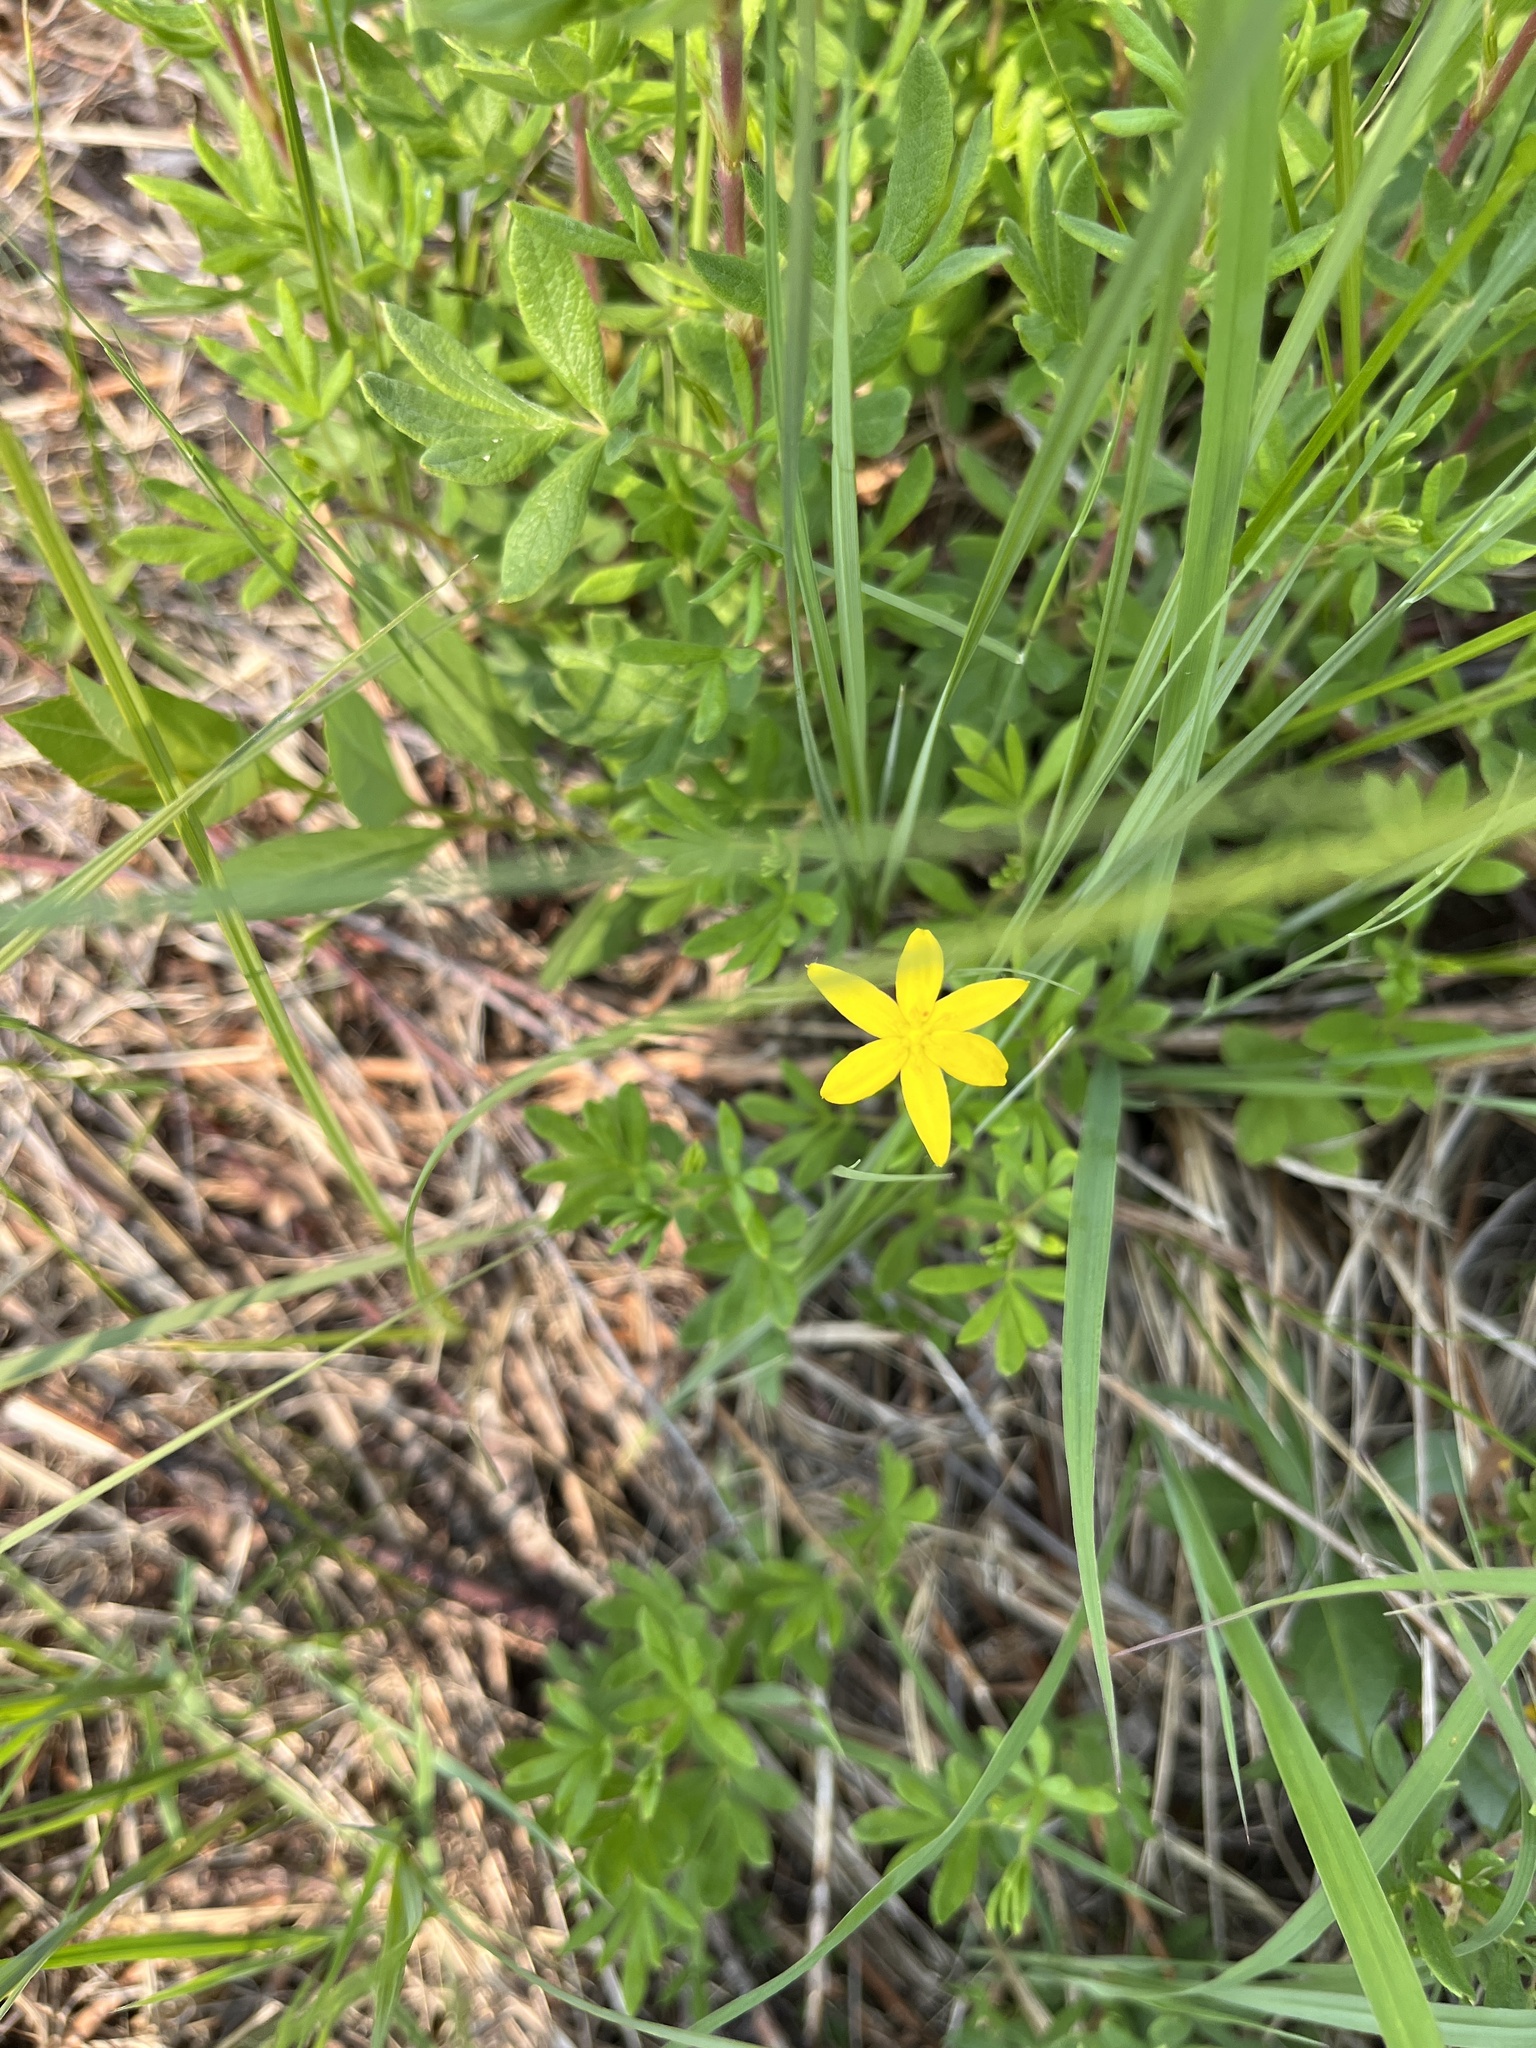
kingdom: Plantae
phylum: Tracheophyta
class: Liliopsida
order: Asparagales
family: Hypoxidaceae
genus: Hypoxis
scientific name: Hypoxis hirsuta
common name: Common goldstar
